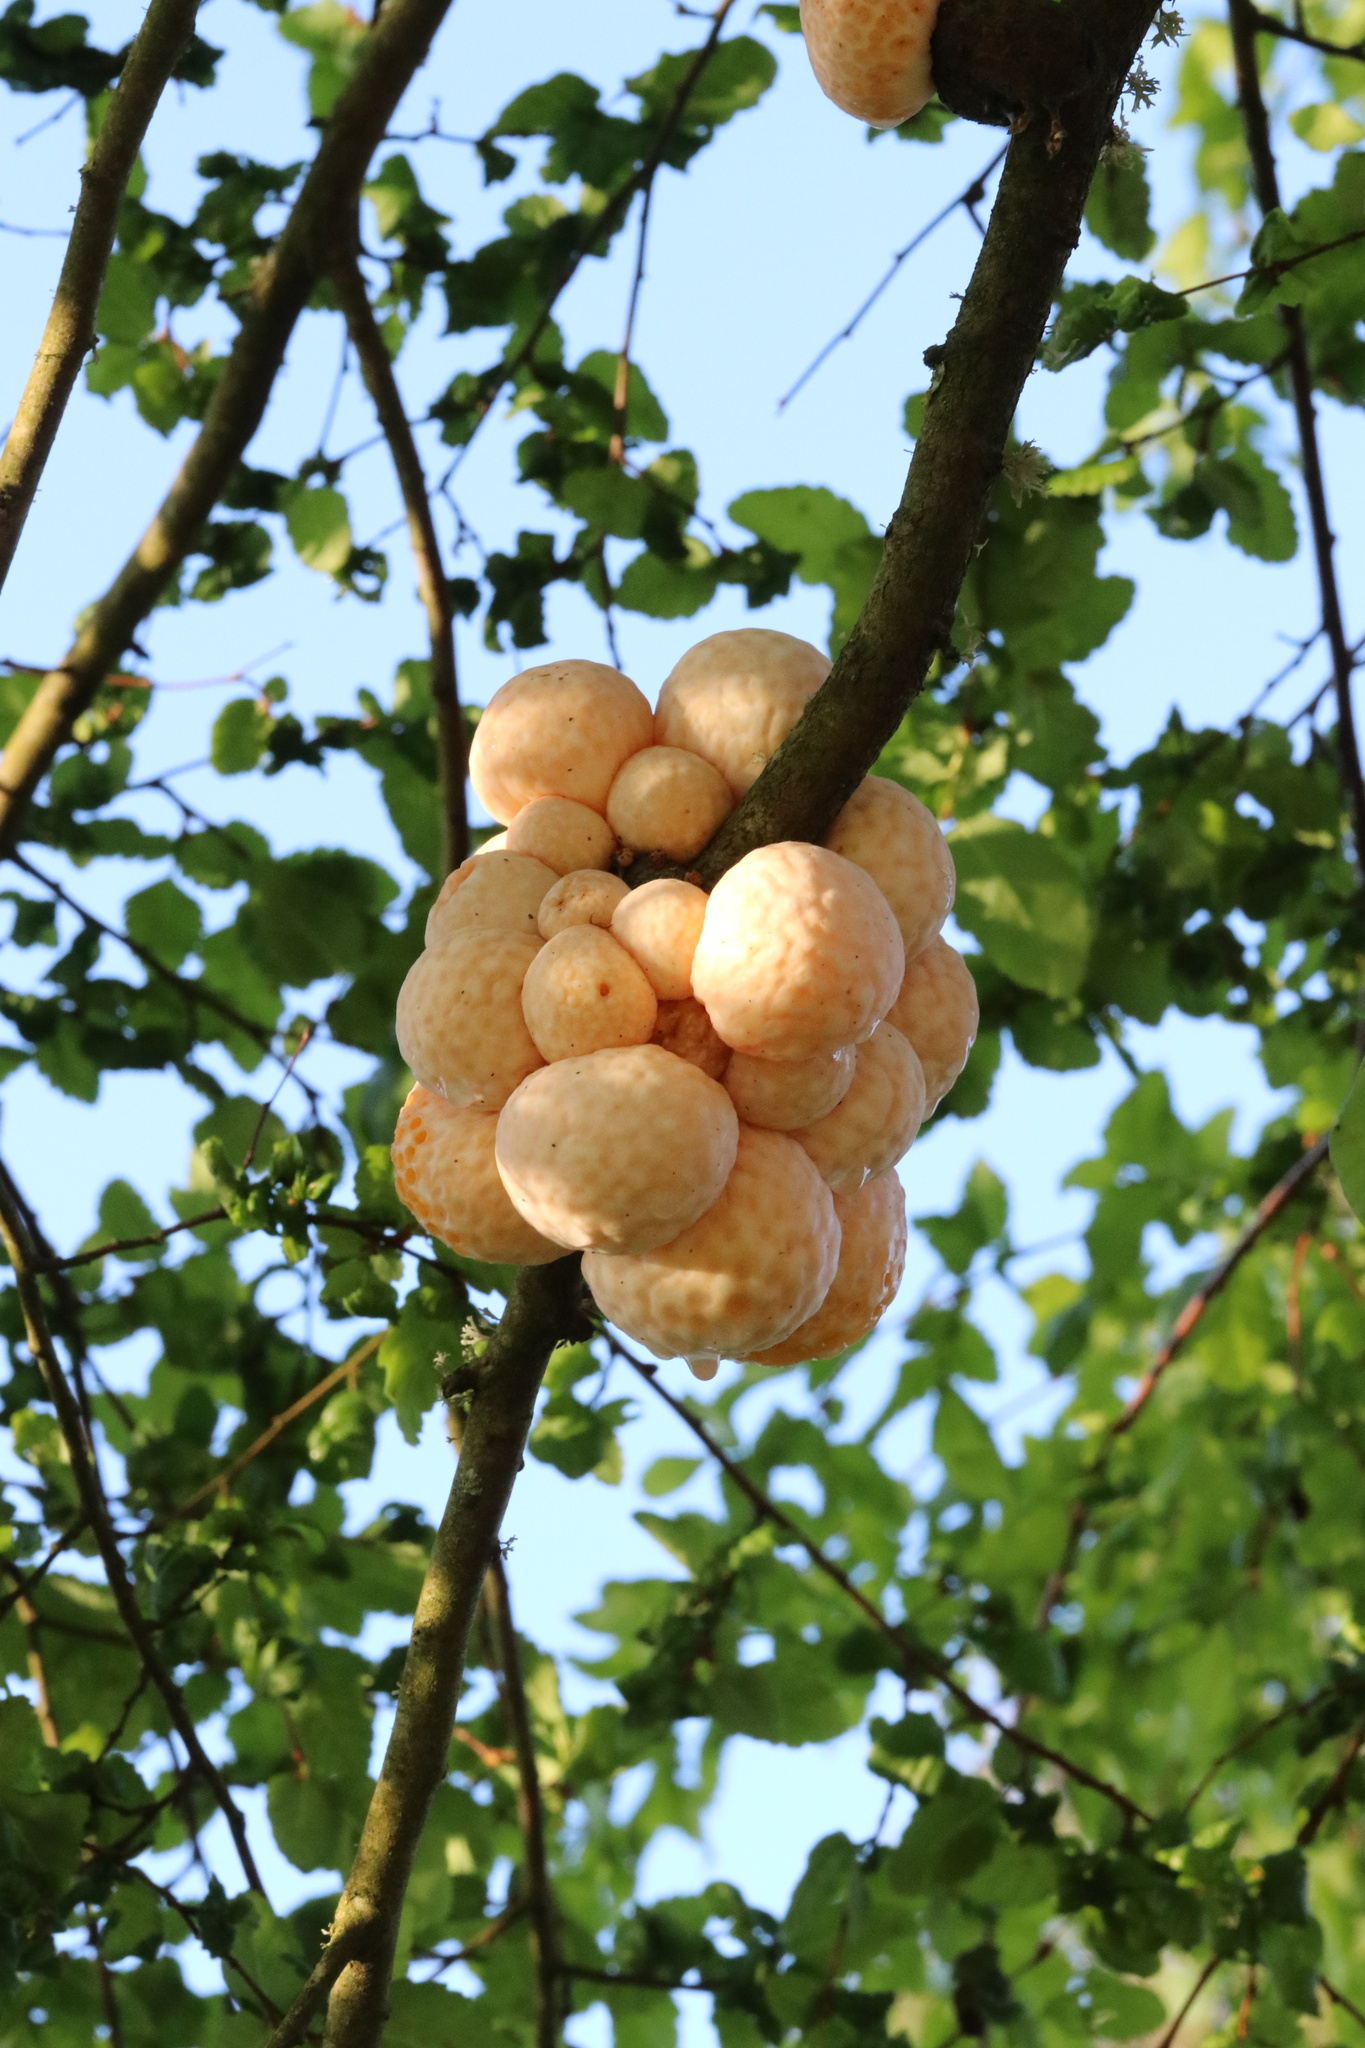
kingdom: Fungi
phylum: Ascomycota
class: Leotiomycetes
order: Cyttariales
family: Cyttariaceae
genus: Cyttaria
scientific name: Cyttaria espinosae
